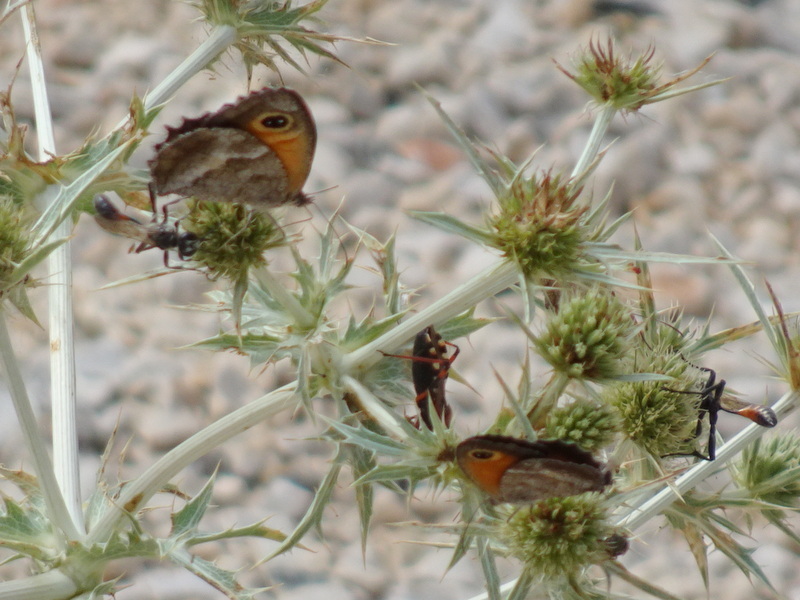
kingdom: Animalia
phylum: Arthropoda
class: Insecta
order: Lepidoptera
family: Nymphalidae
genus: Pyronia
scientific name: Pyronia cecilia
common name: Southern gatekeeper
